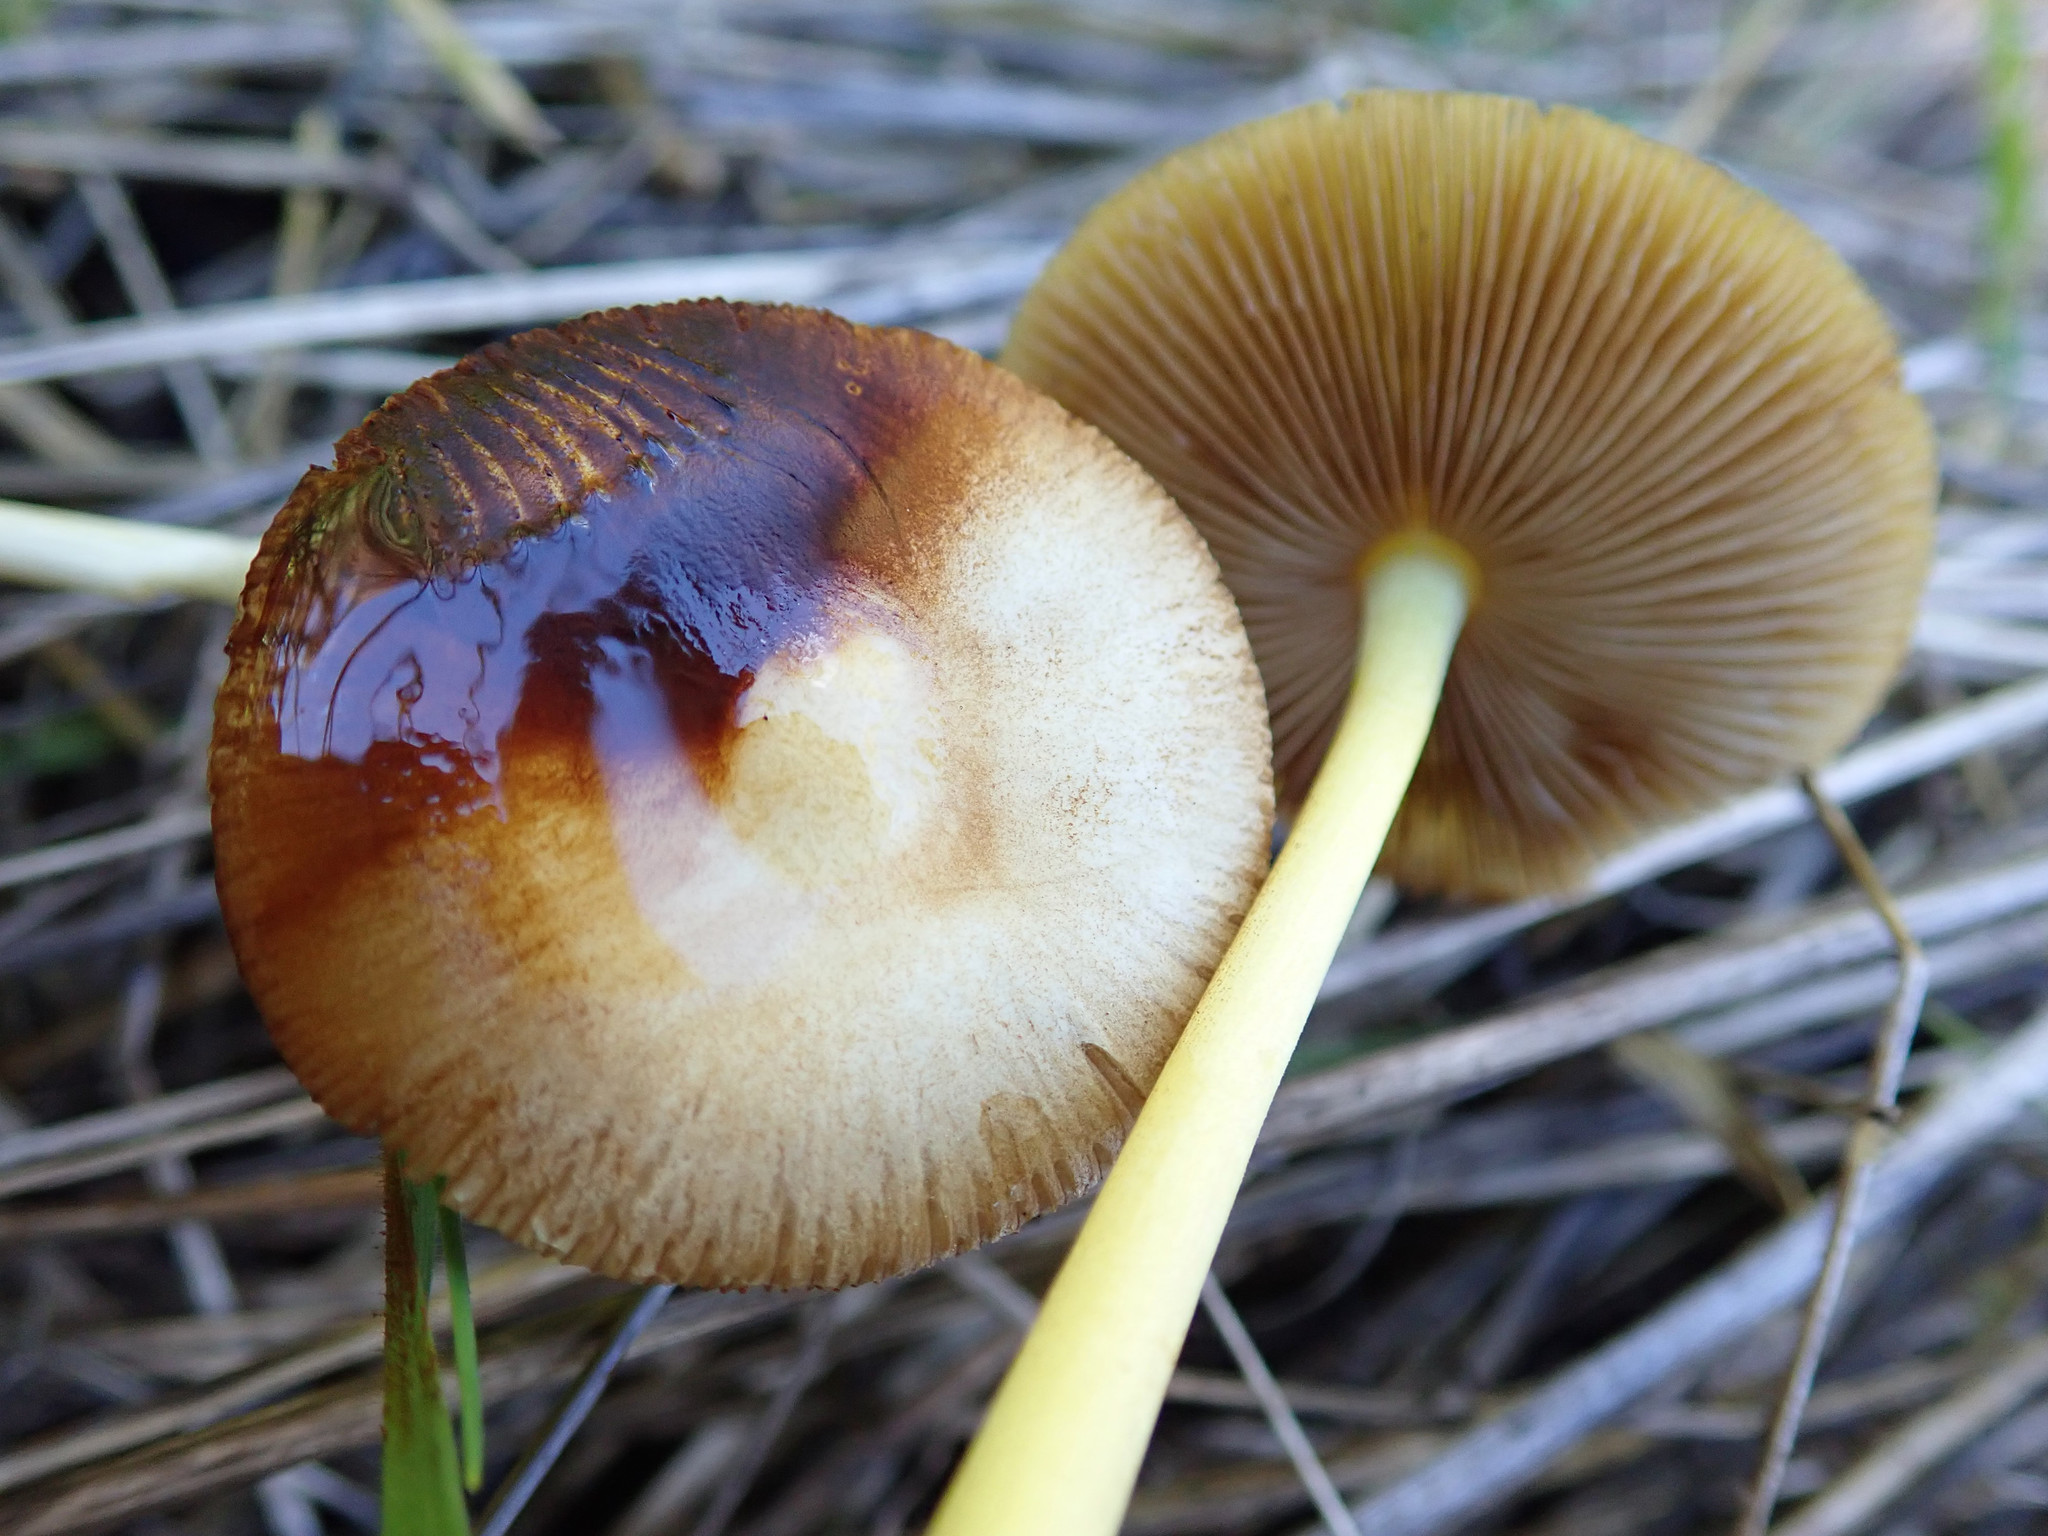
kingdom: Fungi
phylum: Basidiomycota
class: Agaricomycetes
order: Agaricales
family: Bolbitiaceae
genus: Bolbitius
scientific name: Bolbitius titubans
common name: Yellow fieldcap
